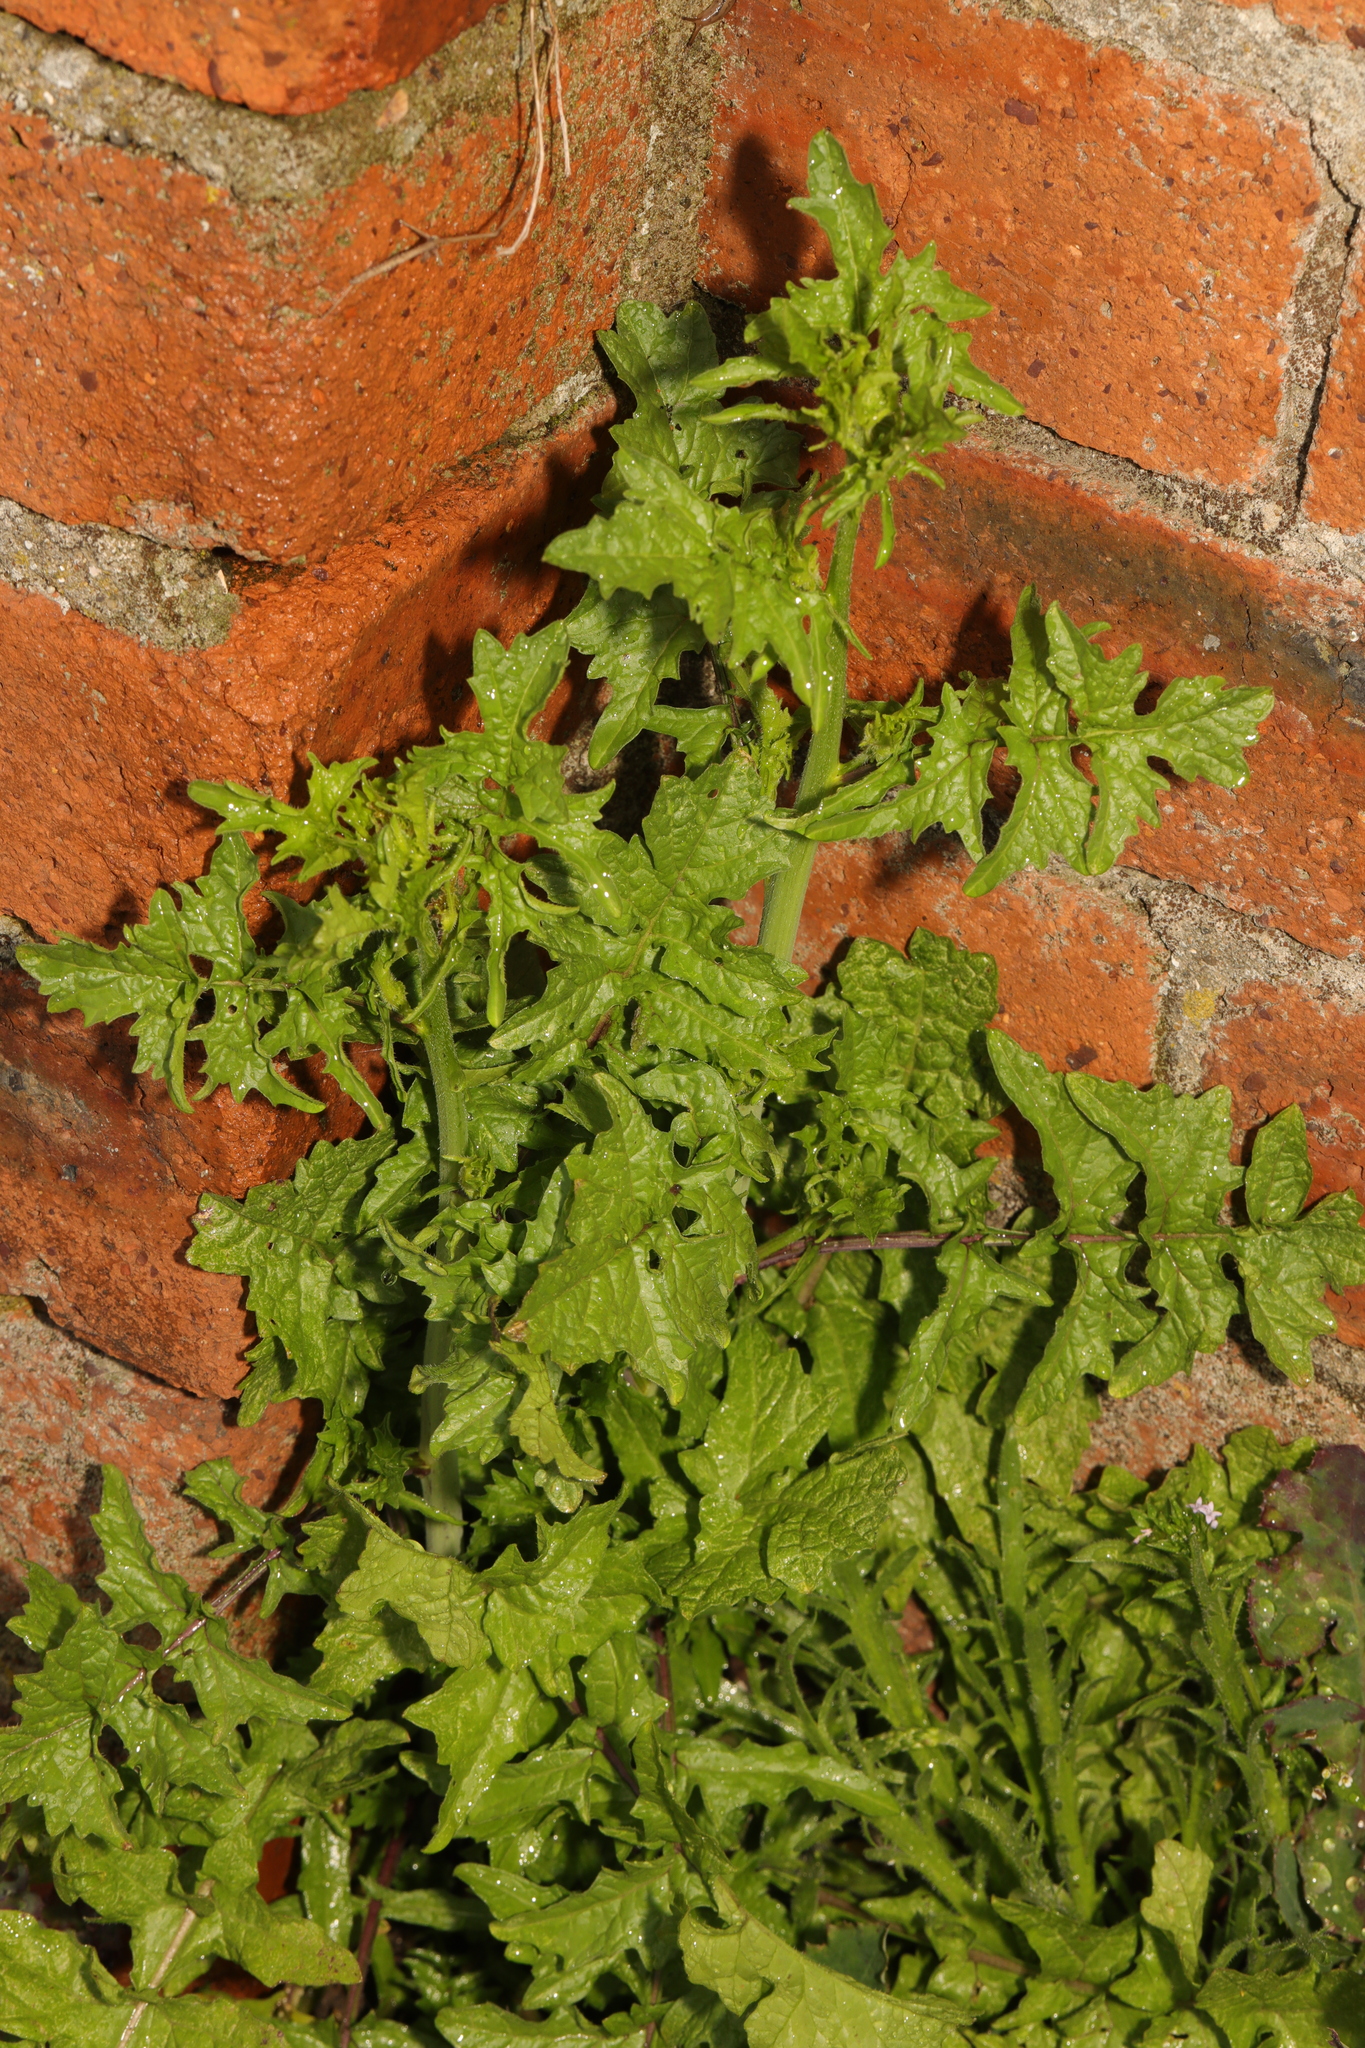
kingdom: Plantae
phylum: Tracheophyta
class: Magnoliopsida
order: Brassicales
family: Brassicaceae
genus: Sisymbrium
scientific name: Sisymbrium officinale
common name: Hedge mustard
